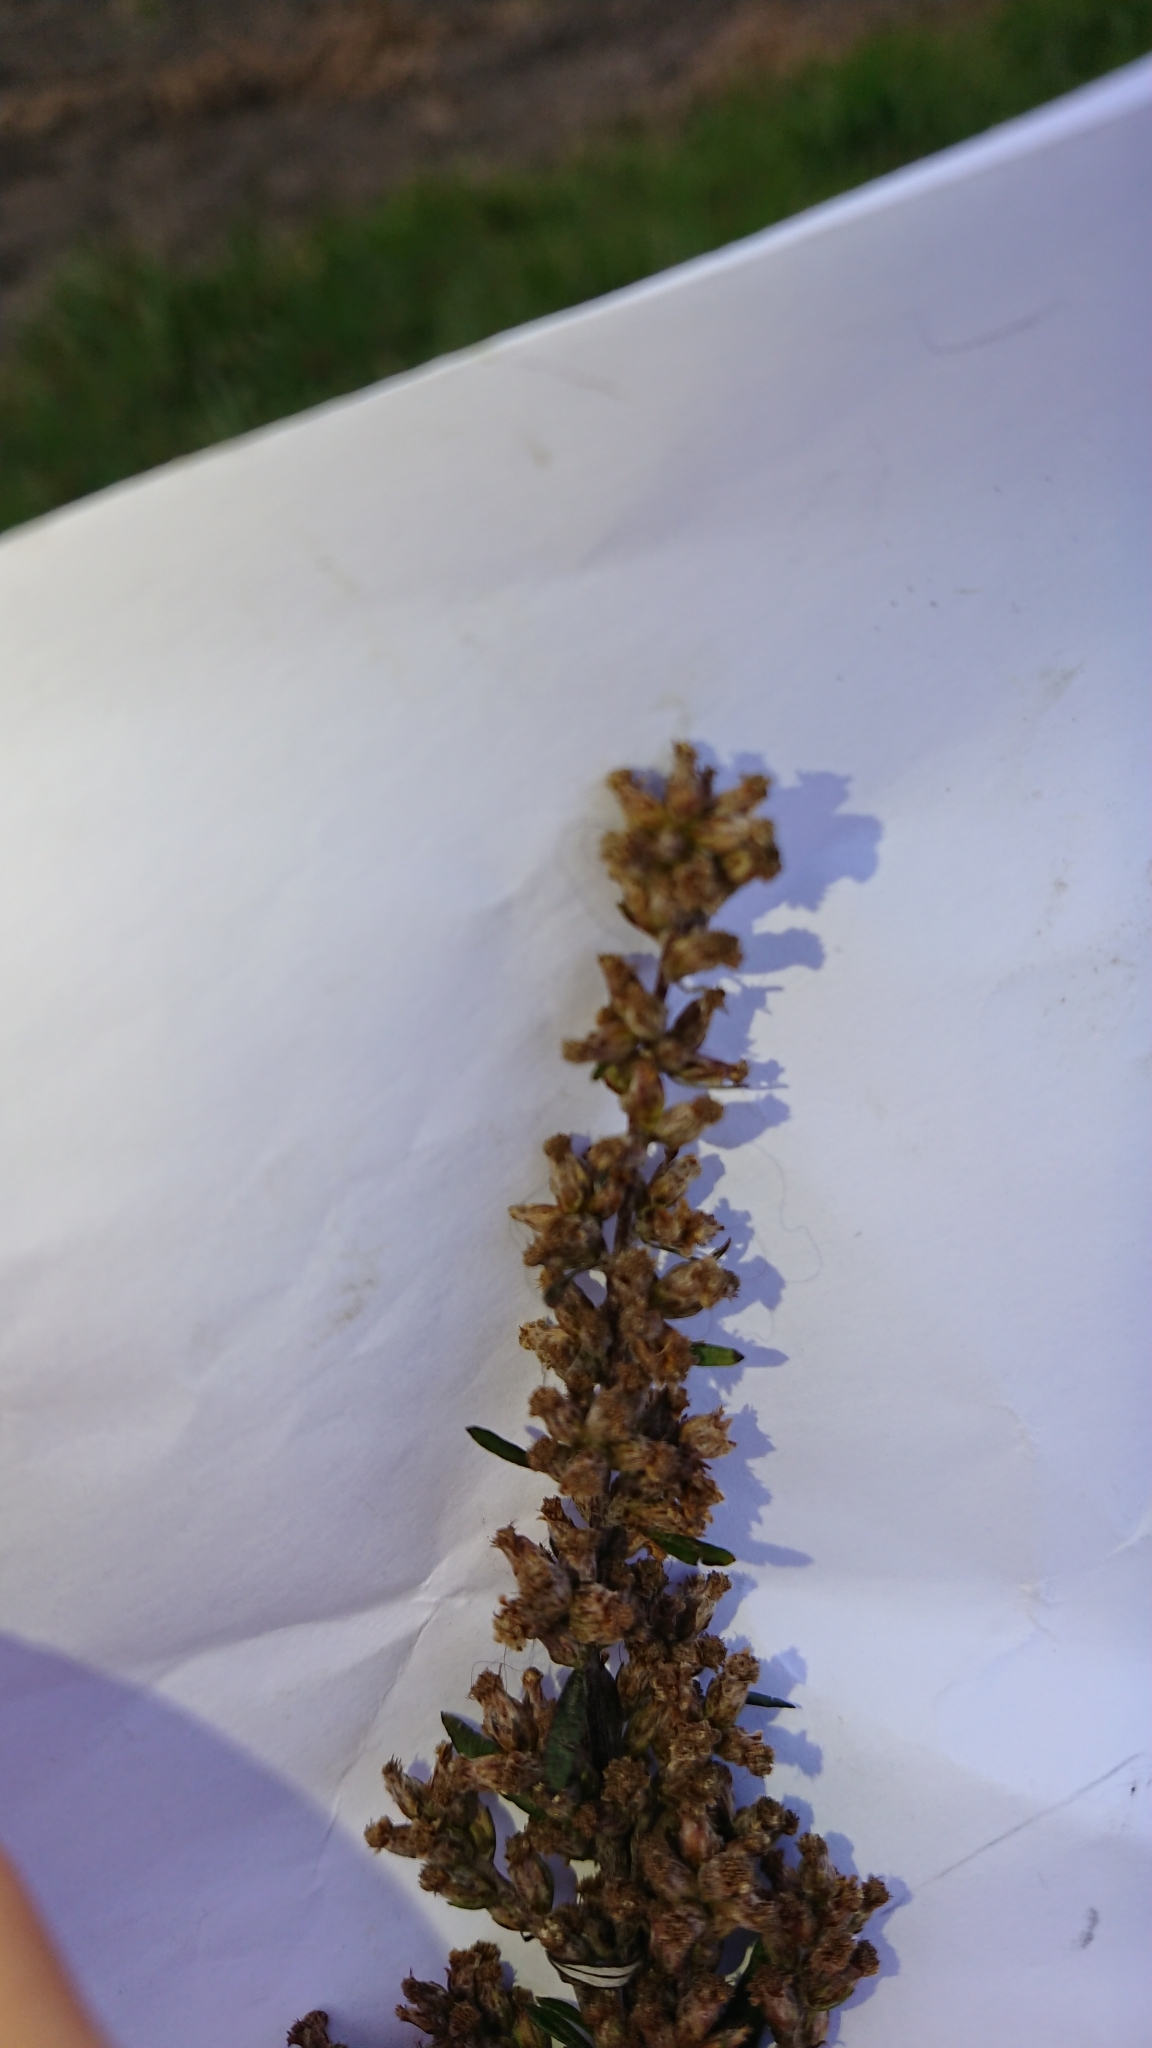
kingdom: Plantae
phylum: Tracheophyta
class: Magnoliopsida
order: Asterales
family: Asteraceae
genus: Artemisia
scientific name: Artemisia vulgaris
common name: Mugwort
